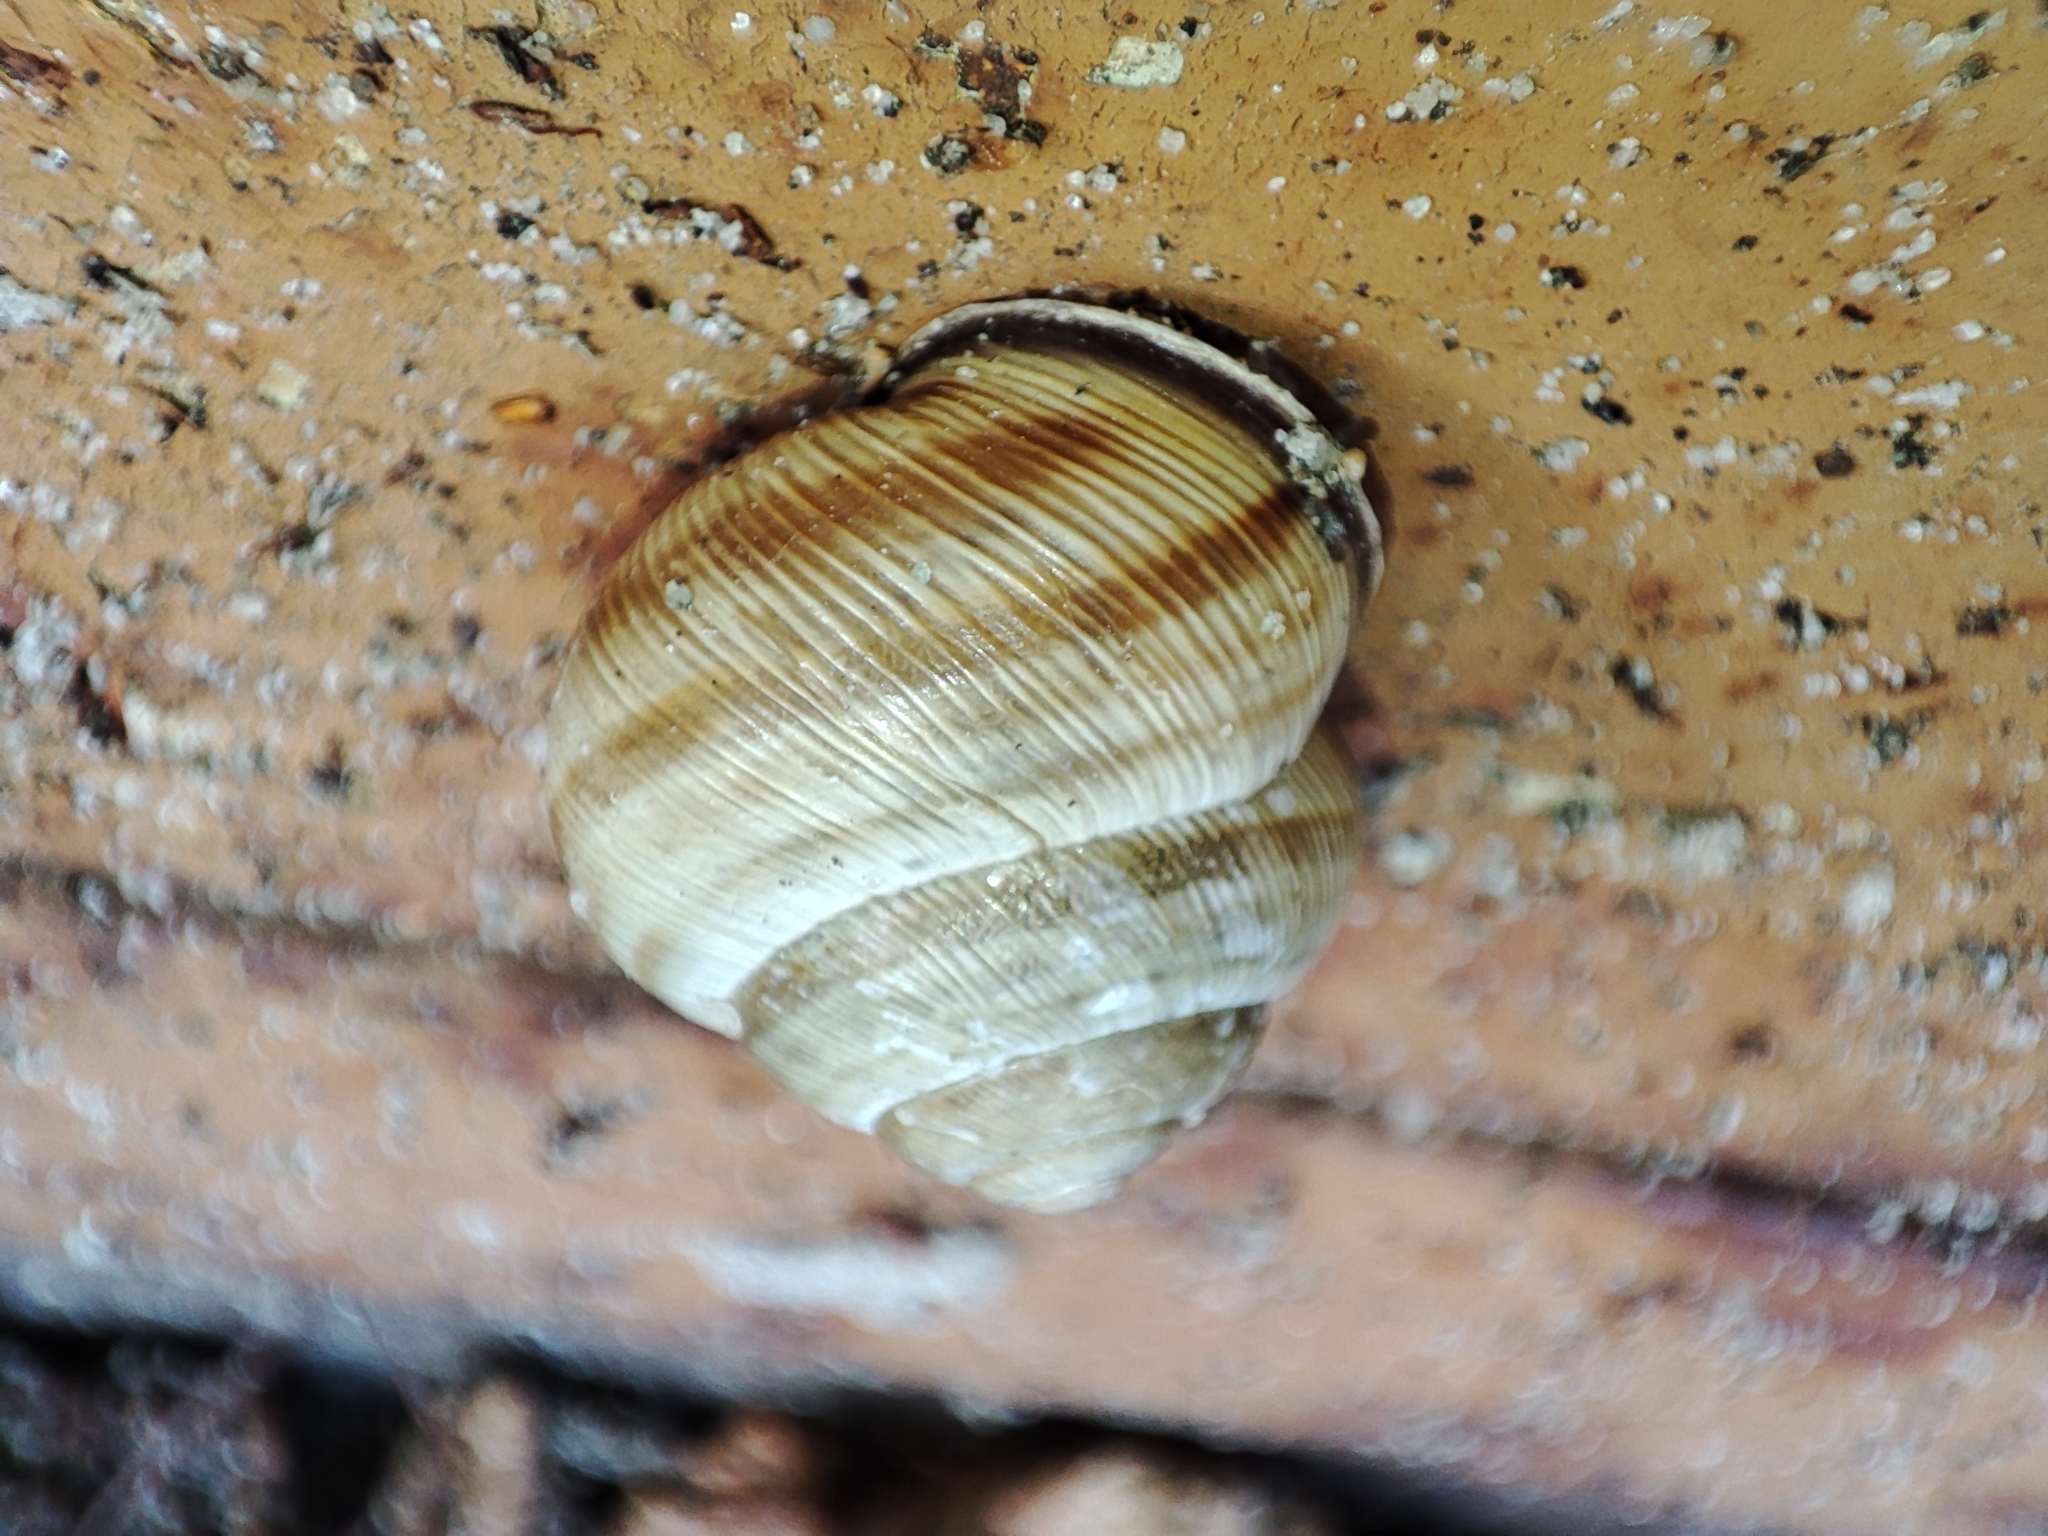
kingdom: Animalia
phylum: Mollusca
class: Gastropoda
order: Stylommatophora
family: Helicidae
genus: Caucasotachea
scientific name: Caucasotachea vindobonensis
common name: European helicid land snail
